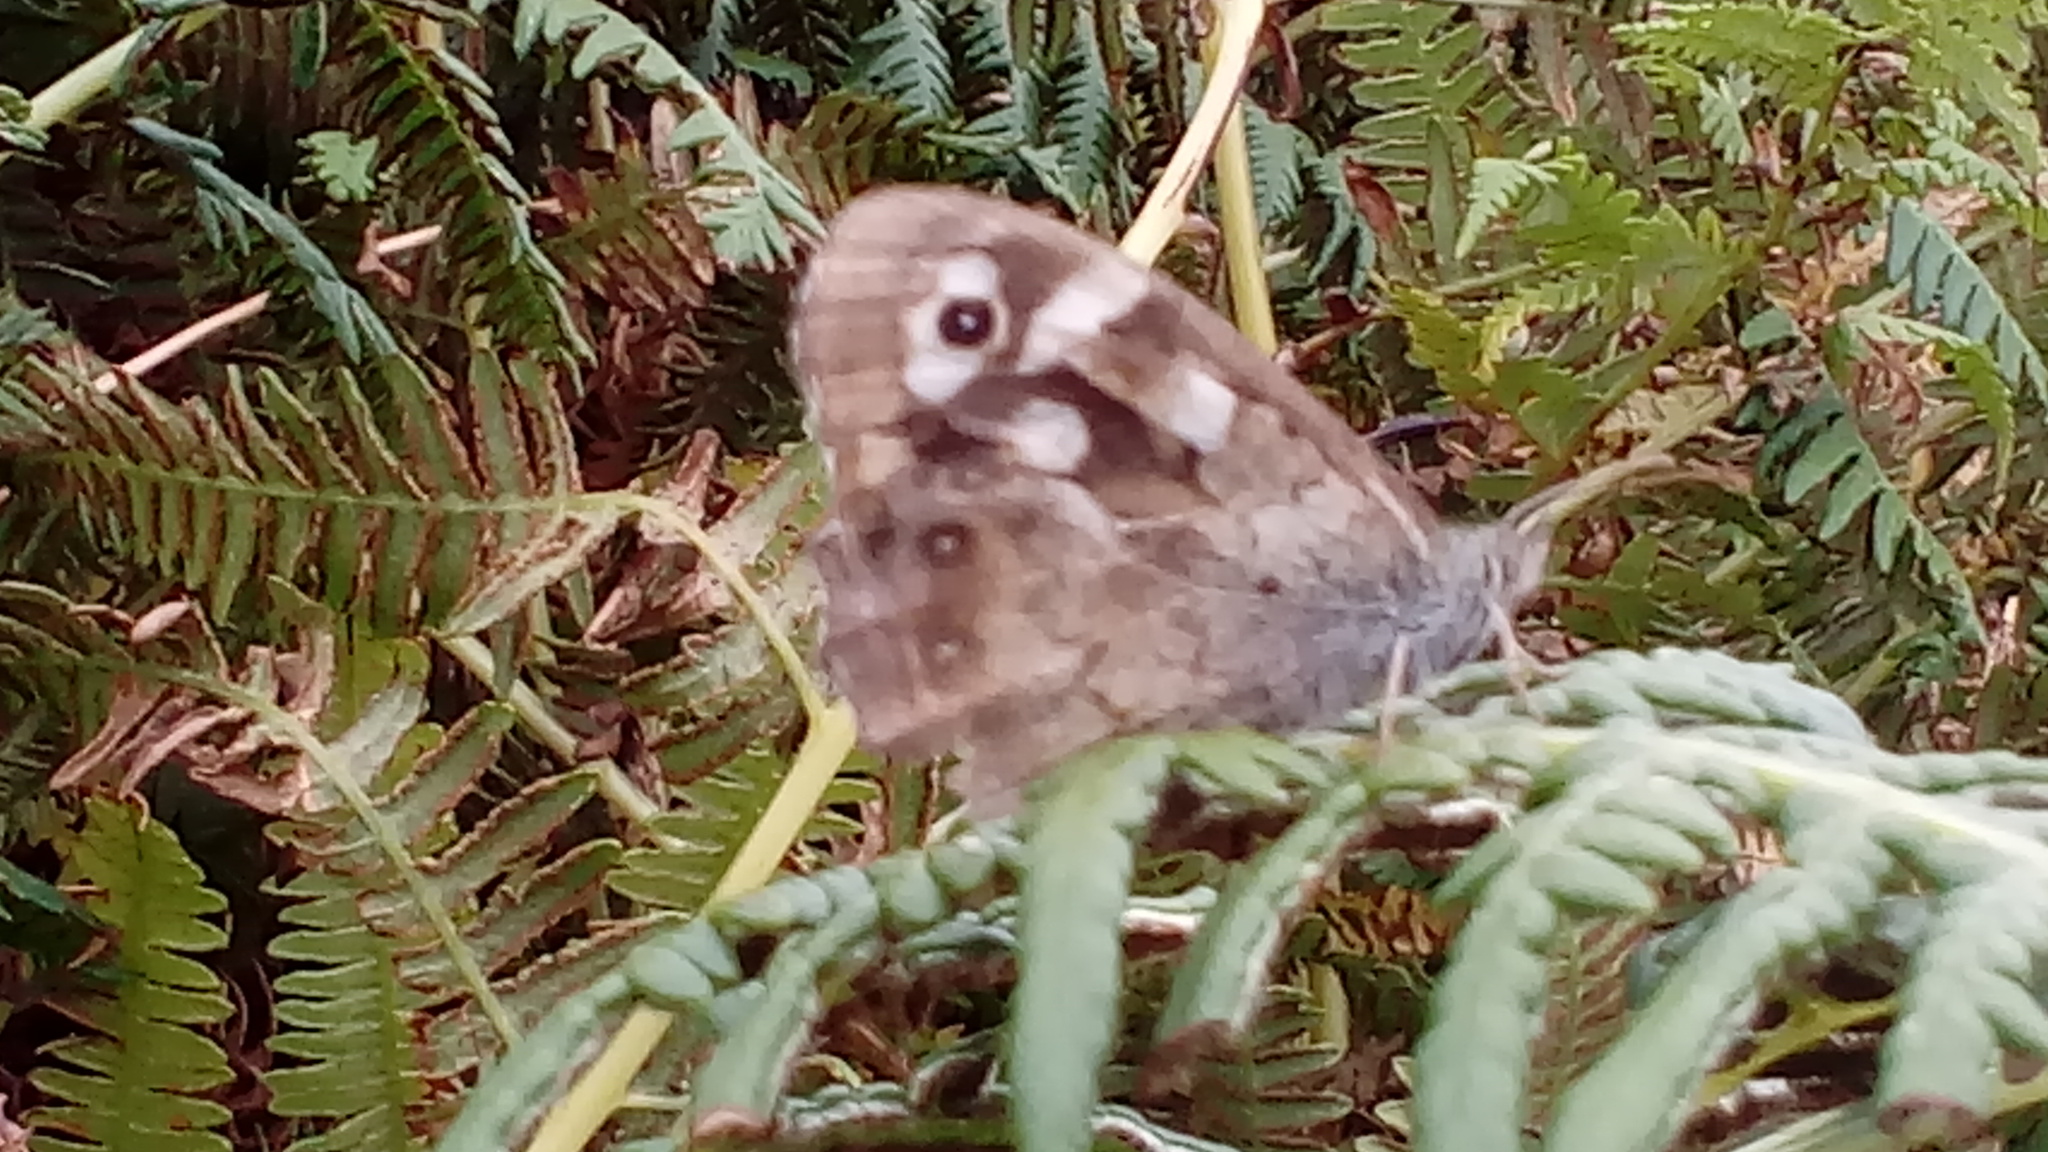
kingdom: Animalia
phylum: Arthropoda
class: Insecta
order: Lepidoptera
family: Nymphalidae
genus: Pararge
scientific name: Pararge aegeria
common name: Speckled wood
